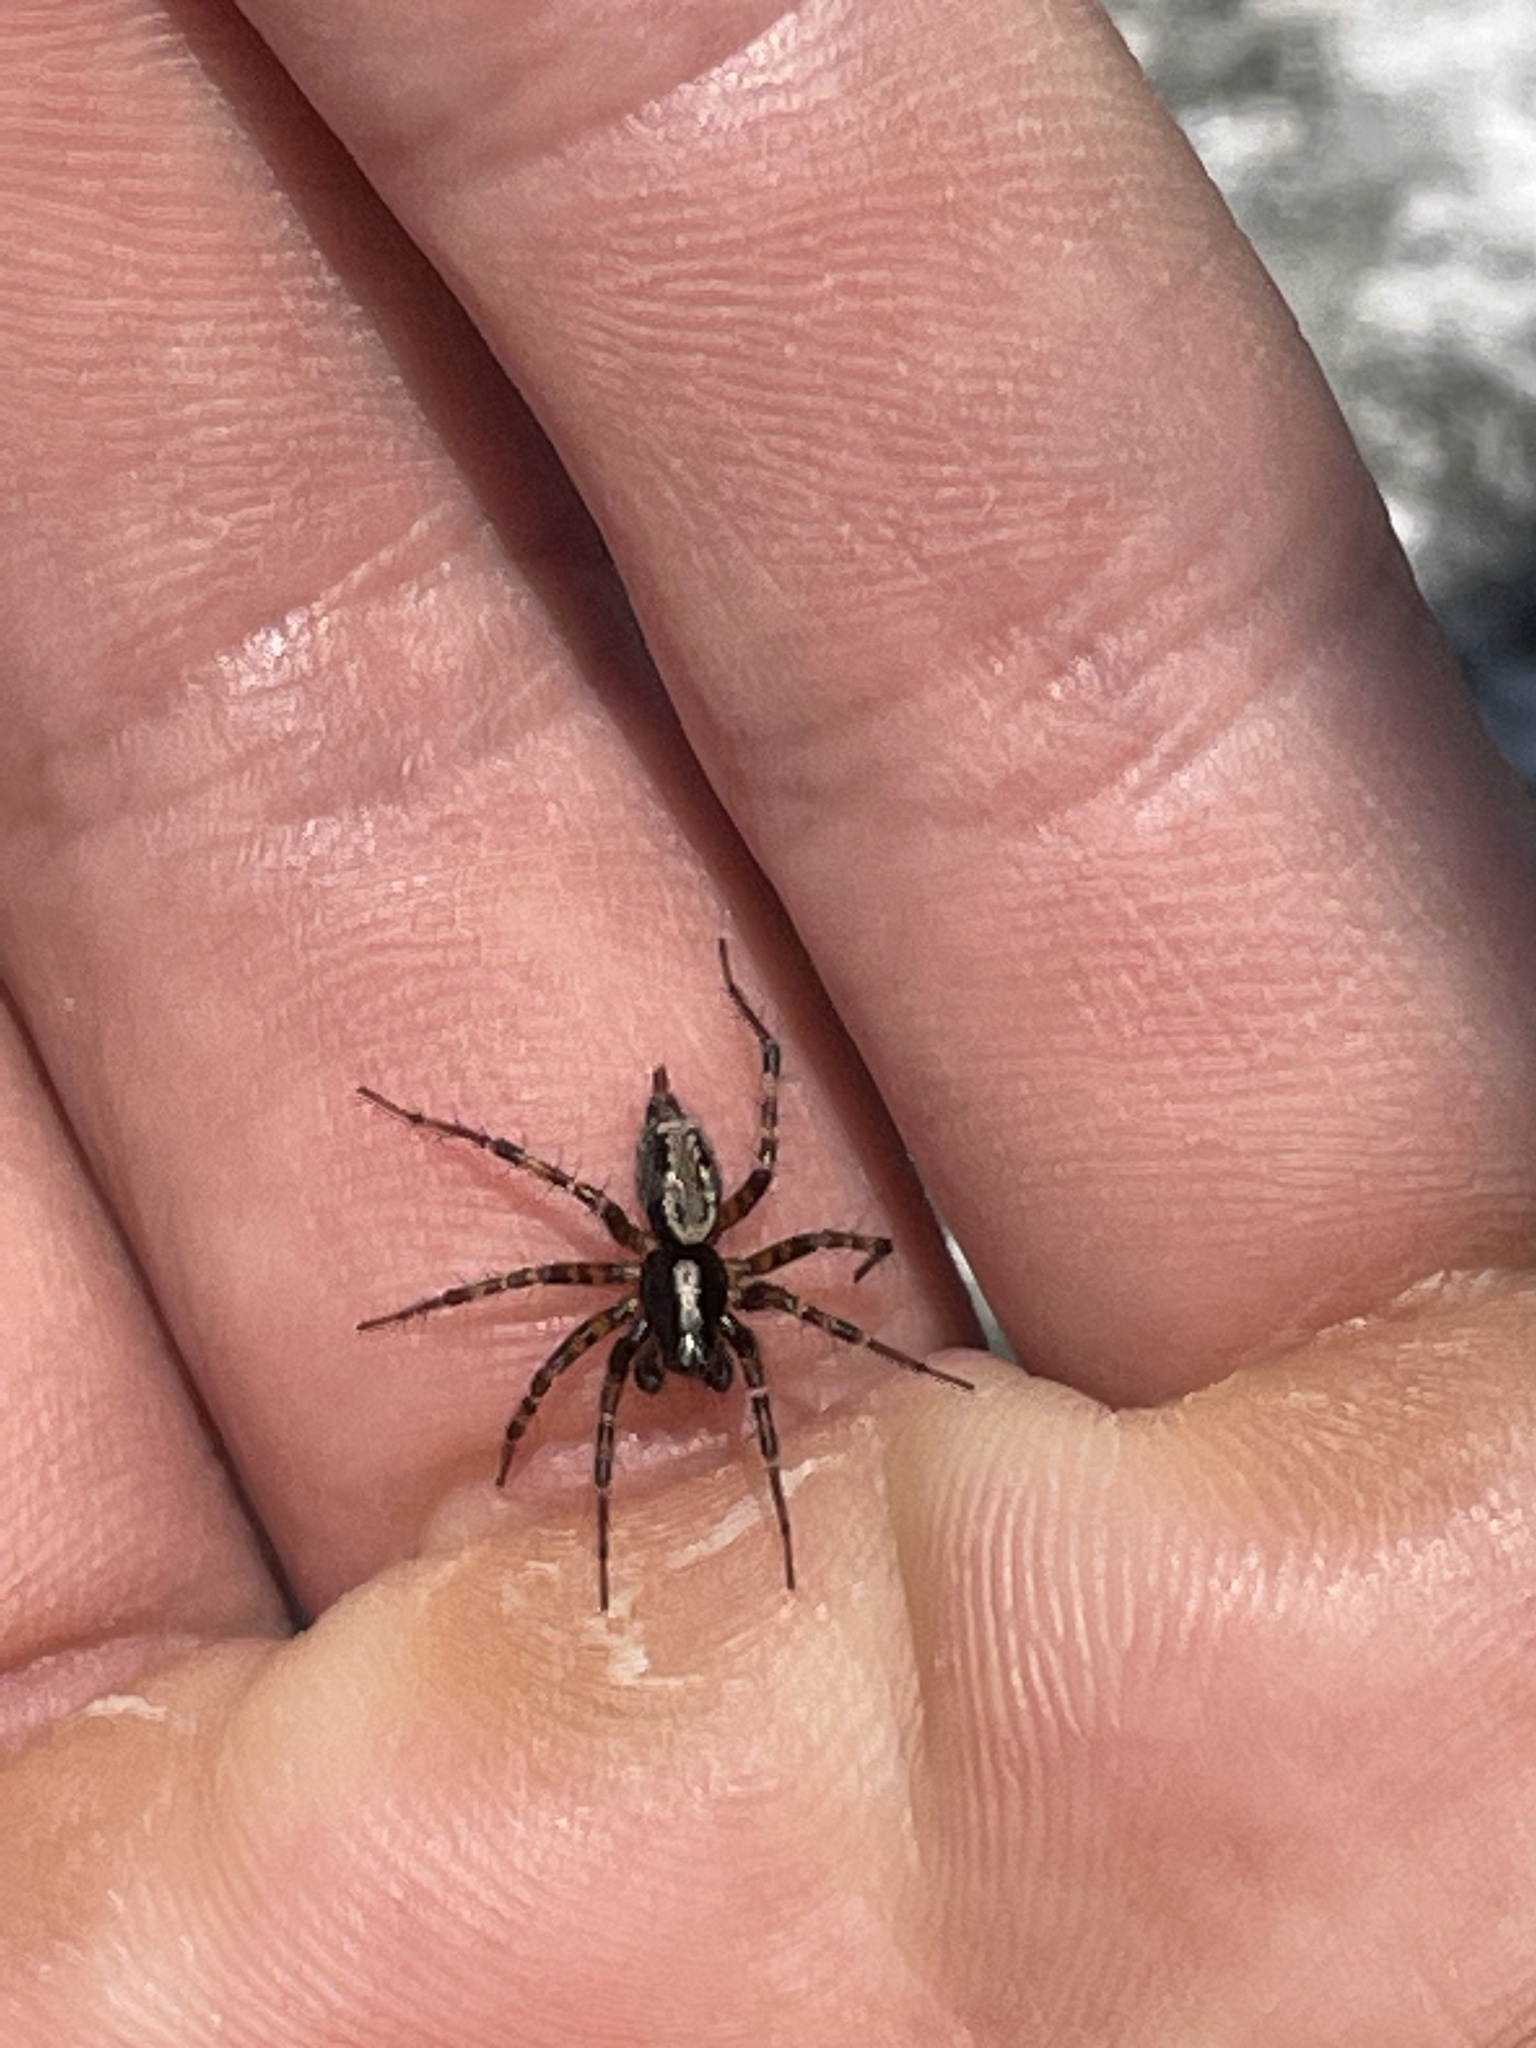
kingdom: Animalia
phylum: Arthropoda
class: Arachnida
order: Araneae
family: Agelenidae
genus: Textrix
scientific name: Textrix denticulata
